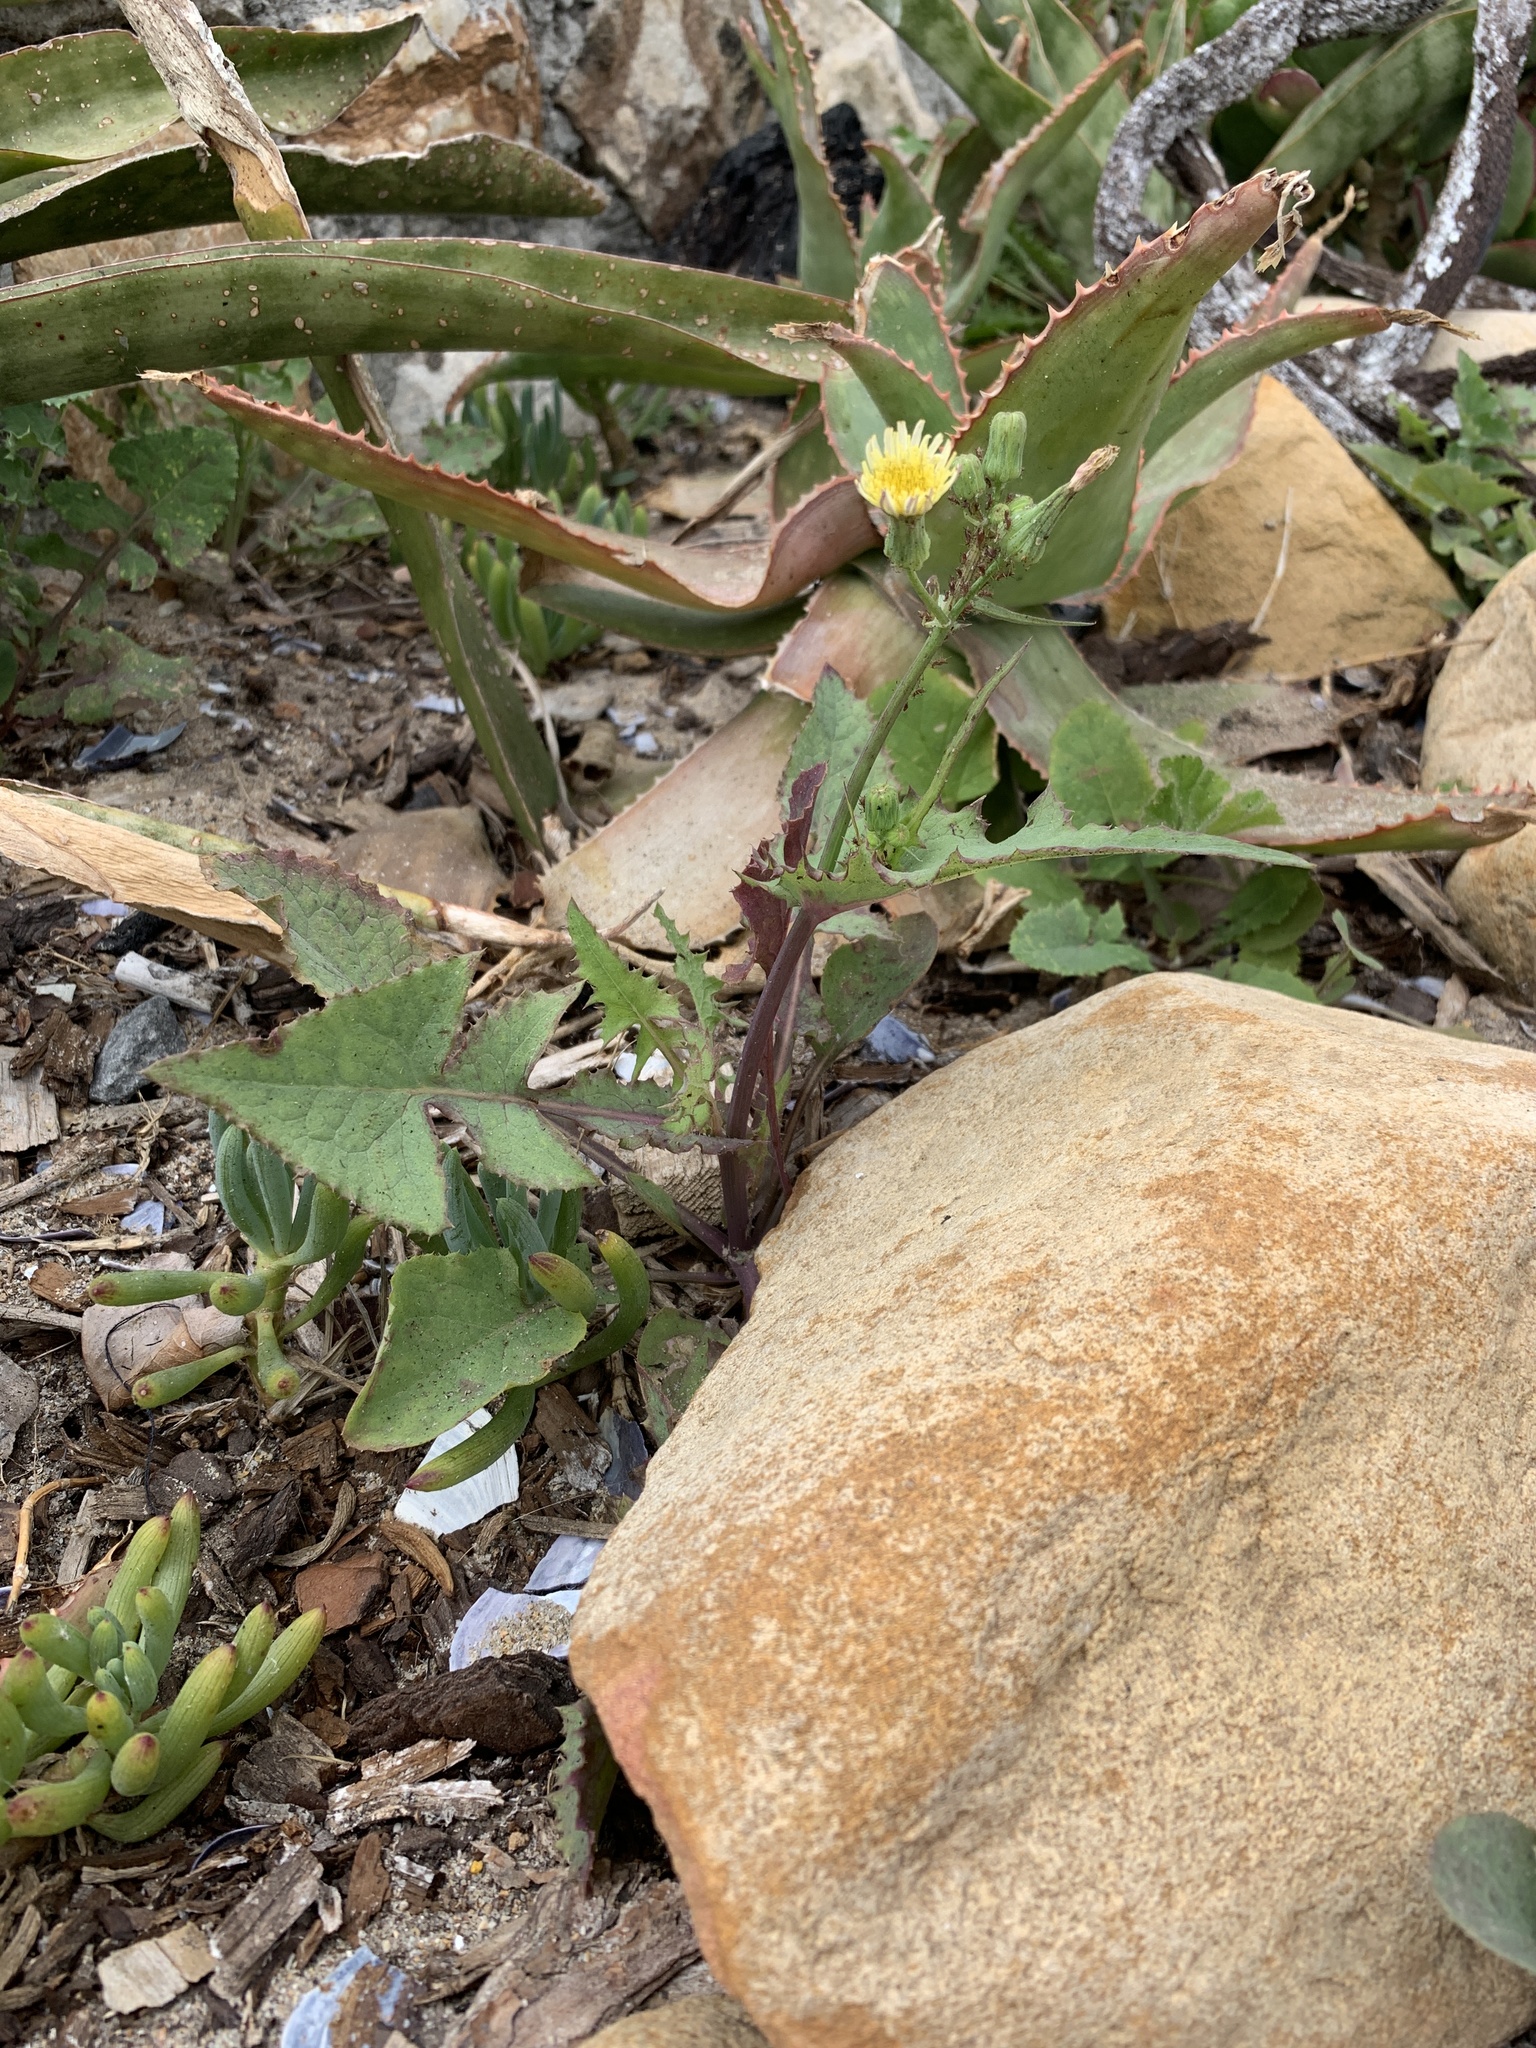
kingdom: Plantae
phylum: Tracheophyta
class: Magnoliopsida
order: Asterales
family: Asteraceae
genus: Sonchus
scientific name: Sonchus oleraceus
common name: Common sowthistle
